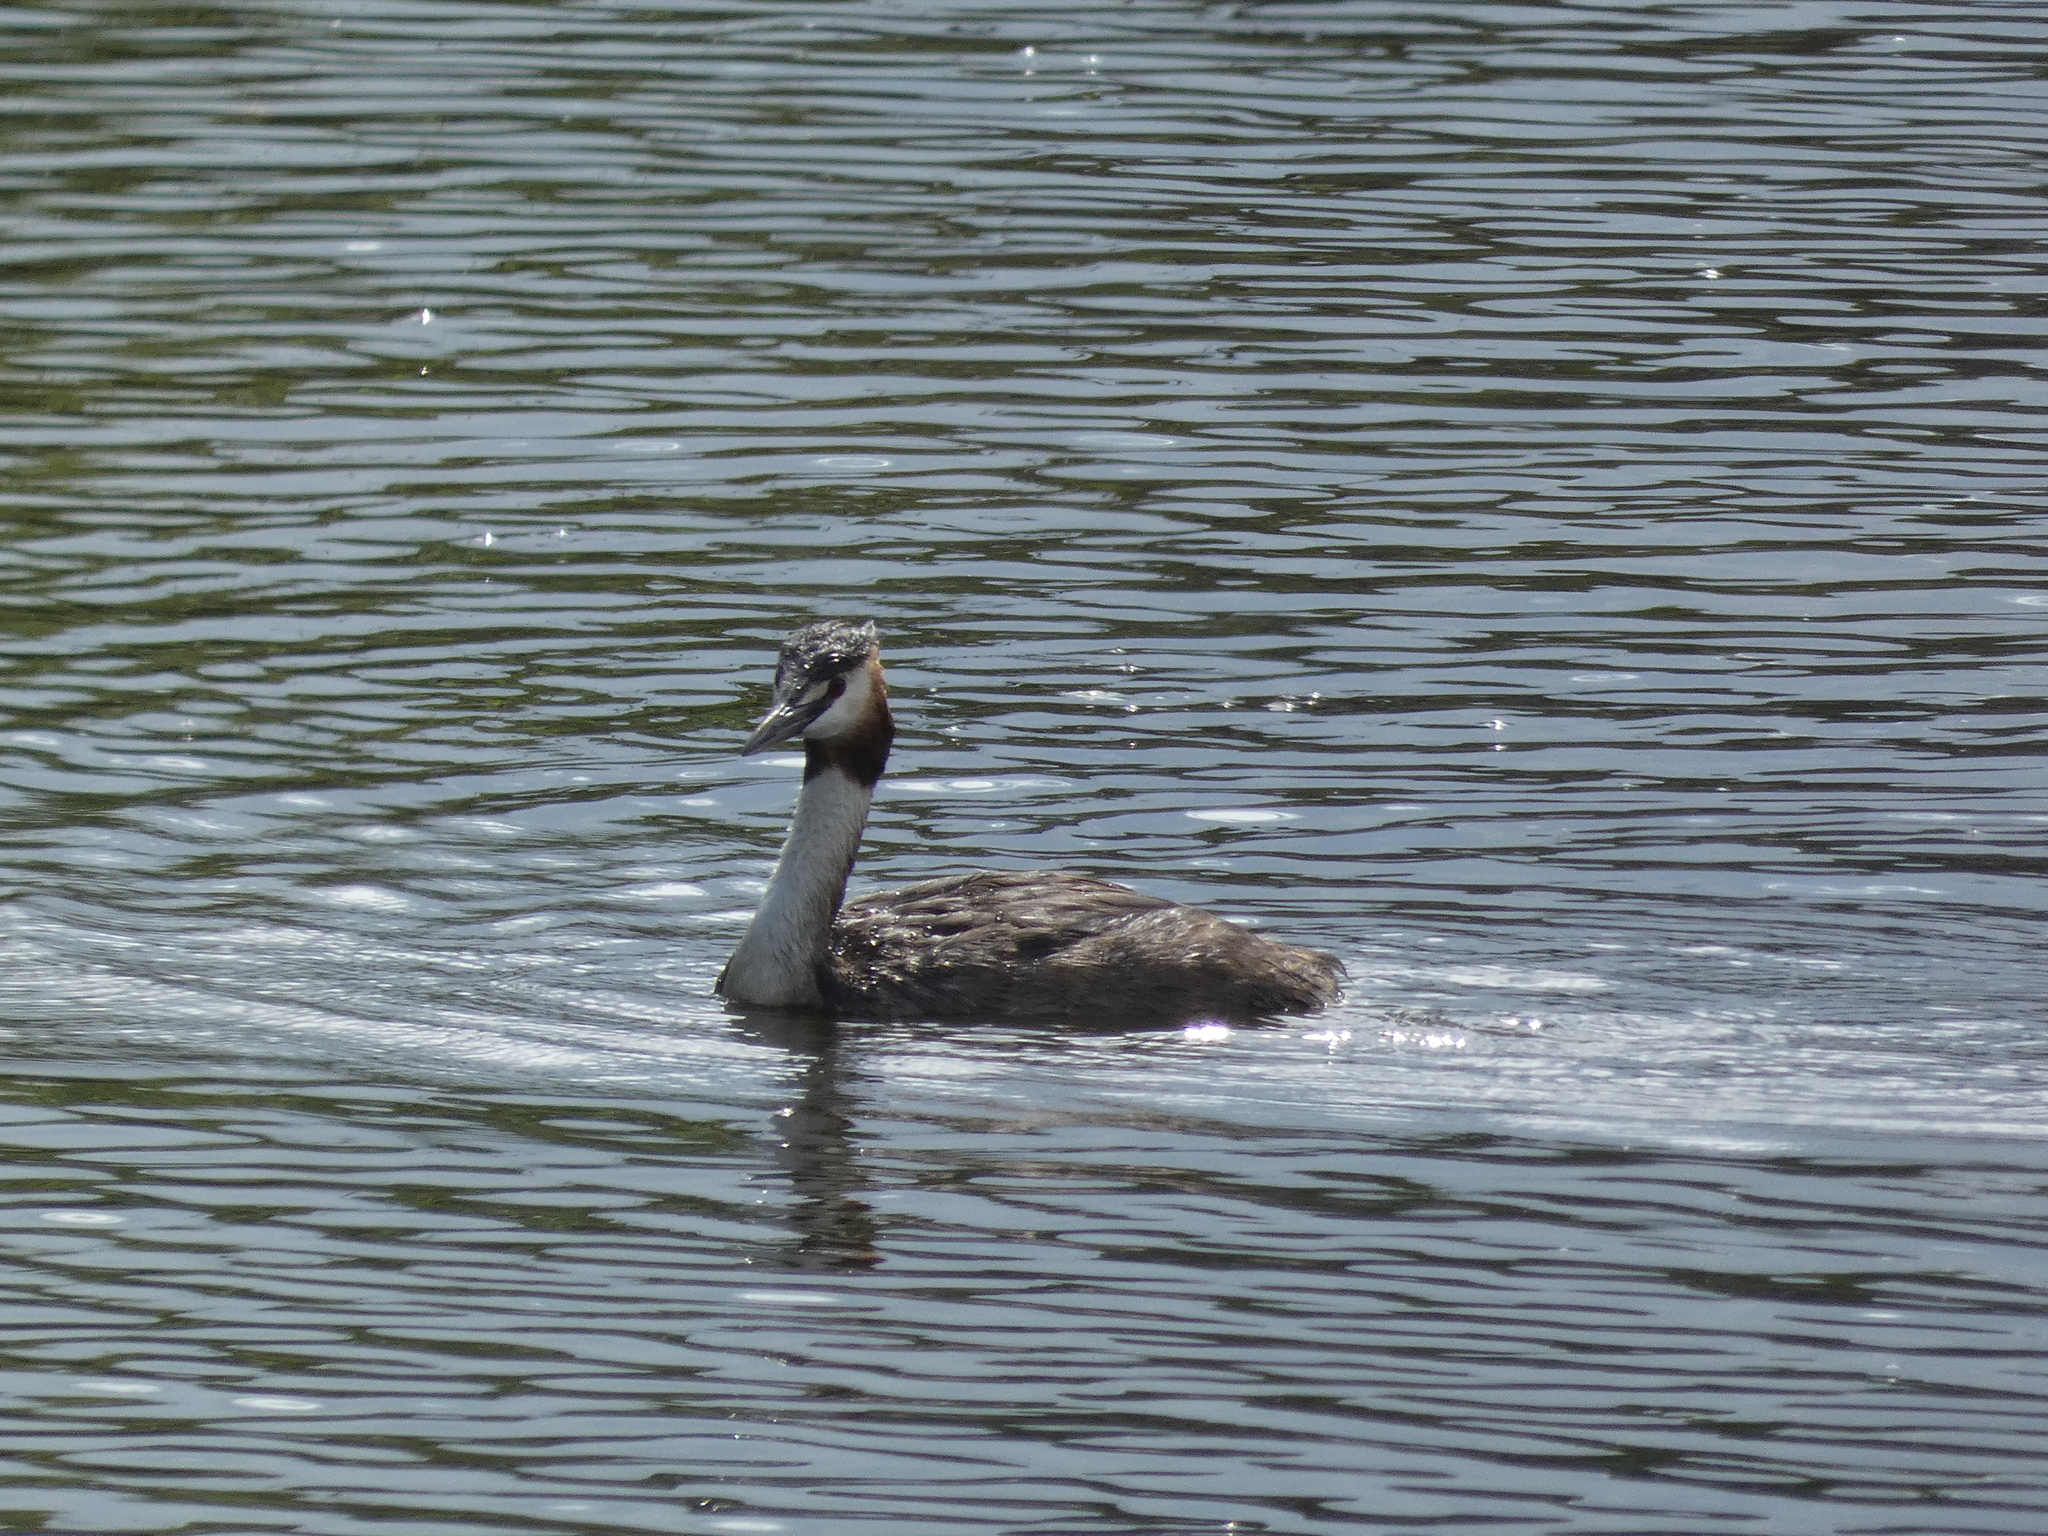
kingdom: Animalia
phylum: Chordata
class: Aves
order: Podicipediformes
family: Podicipedidae
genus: Podiceps
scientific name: Podiceps cristatus
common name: Great crested grebe
